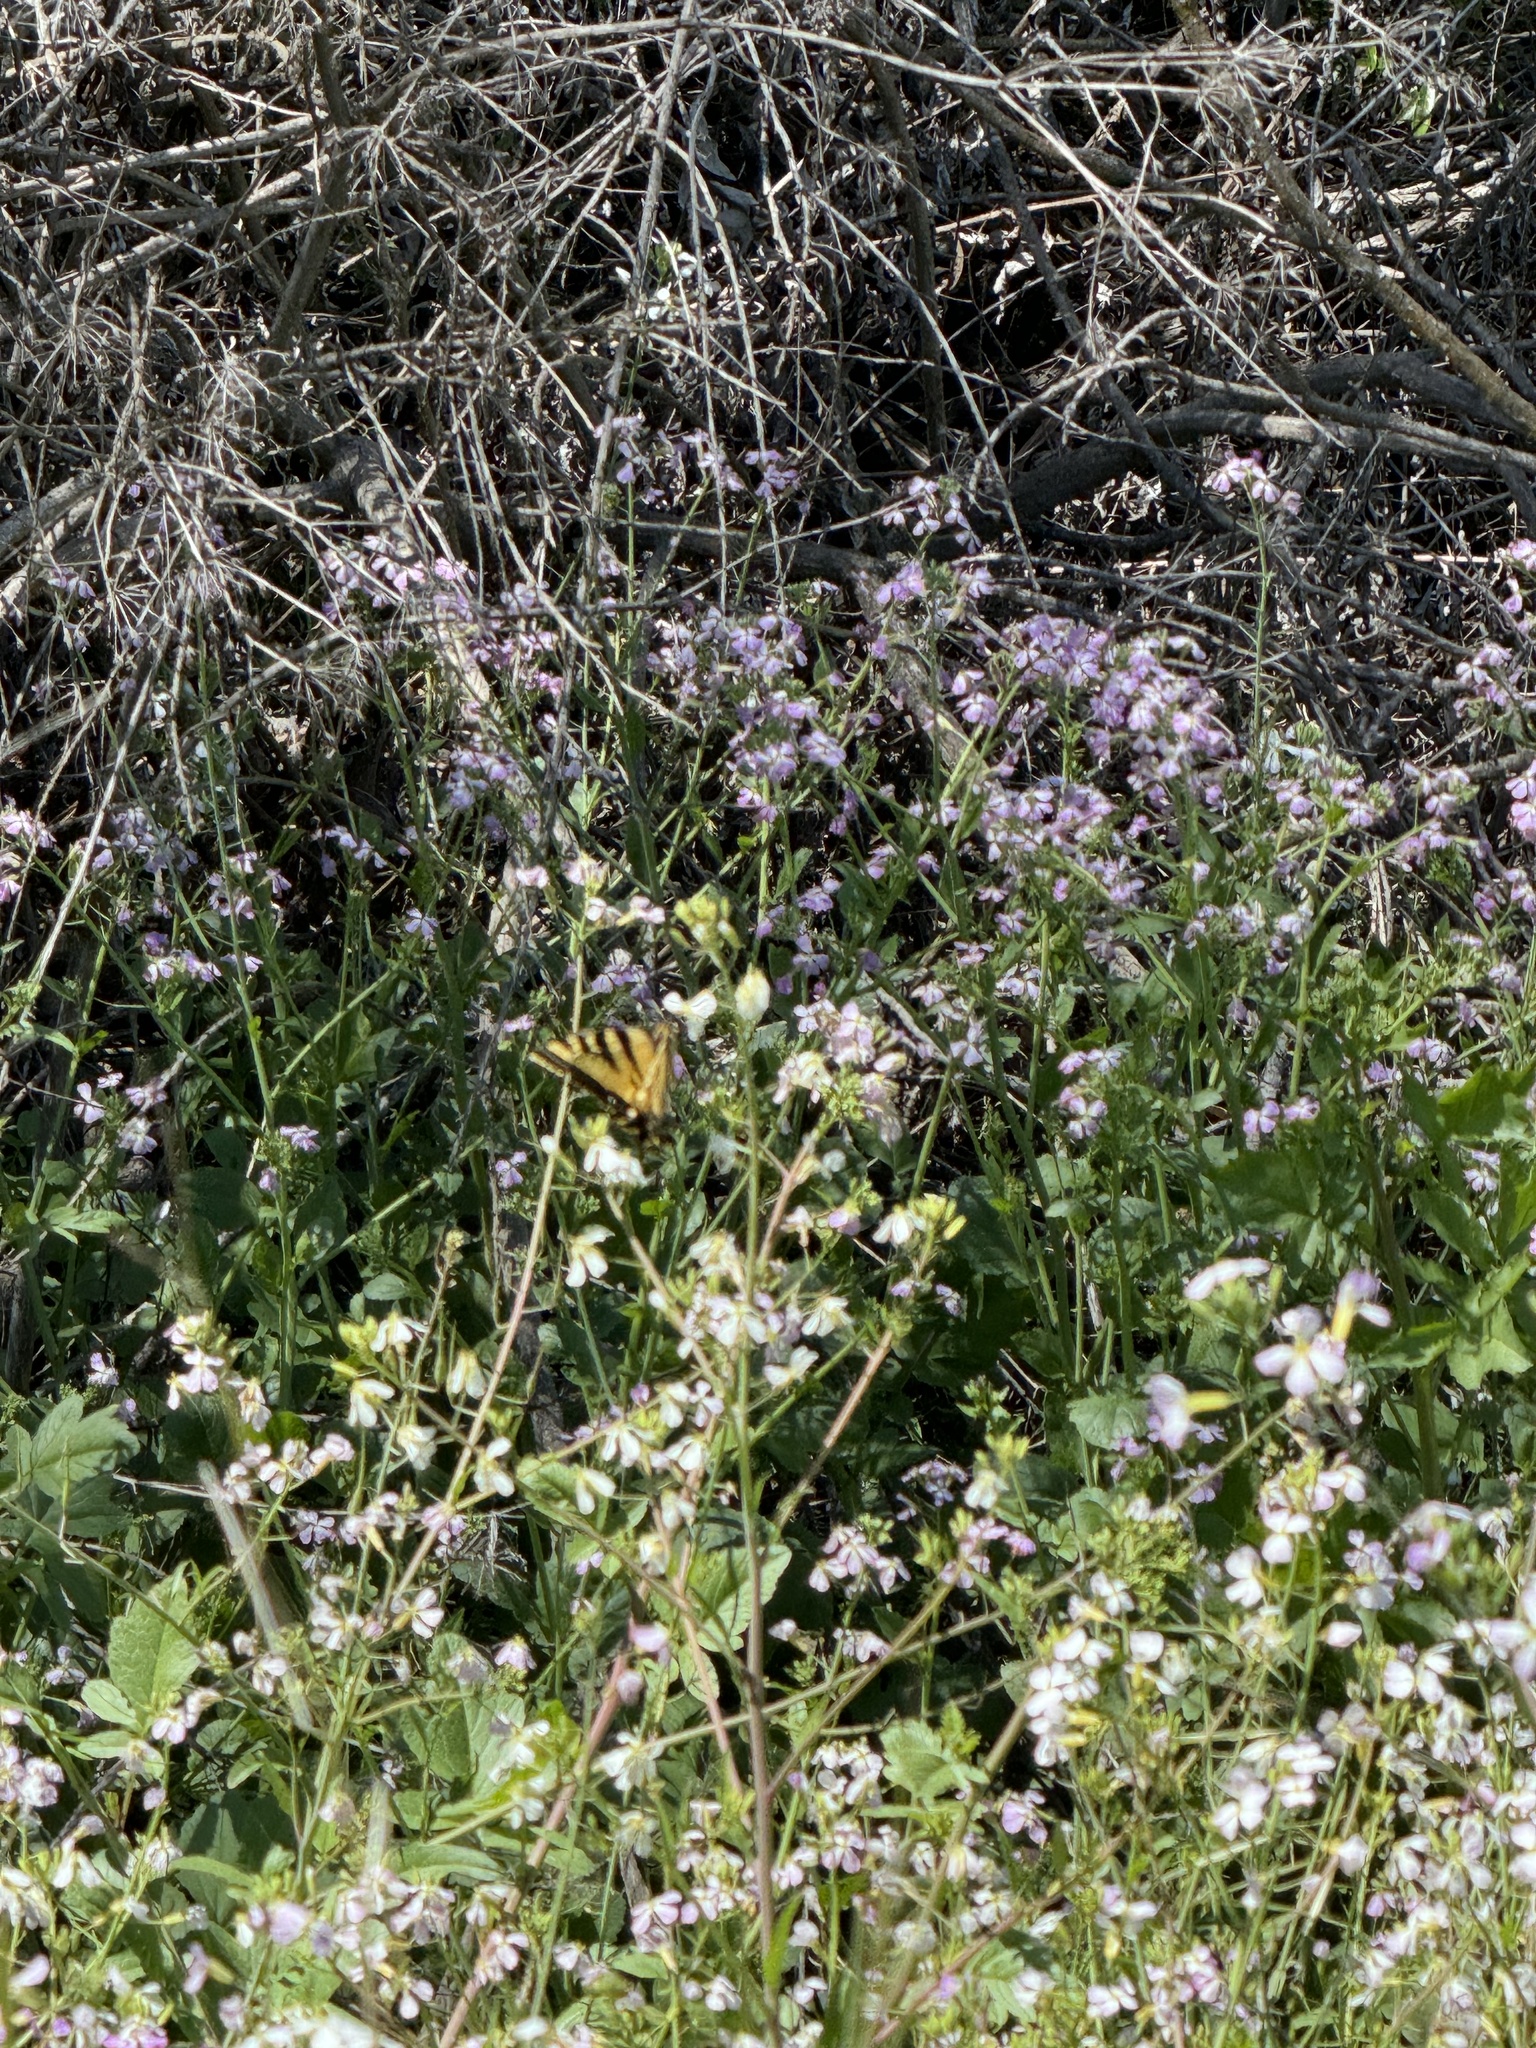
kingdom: Animalia
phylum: Arthropoda
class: Insecta
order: Lepidoptera
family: Papilionidae
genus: Papilio
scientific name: Papilio rutulus
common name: Western tiger swallowtail
